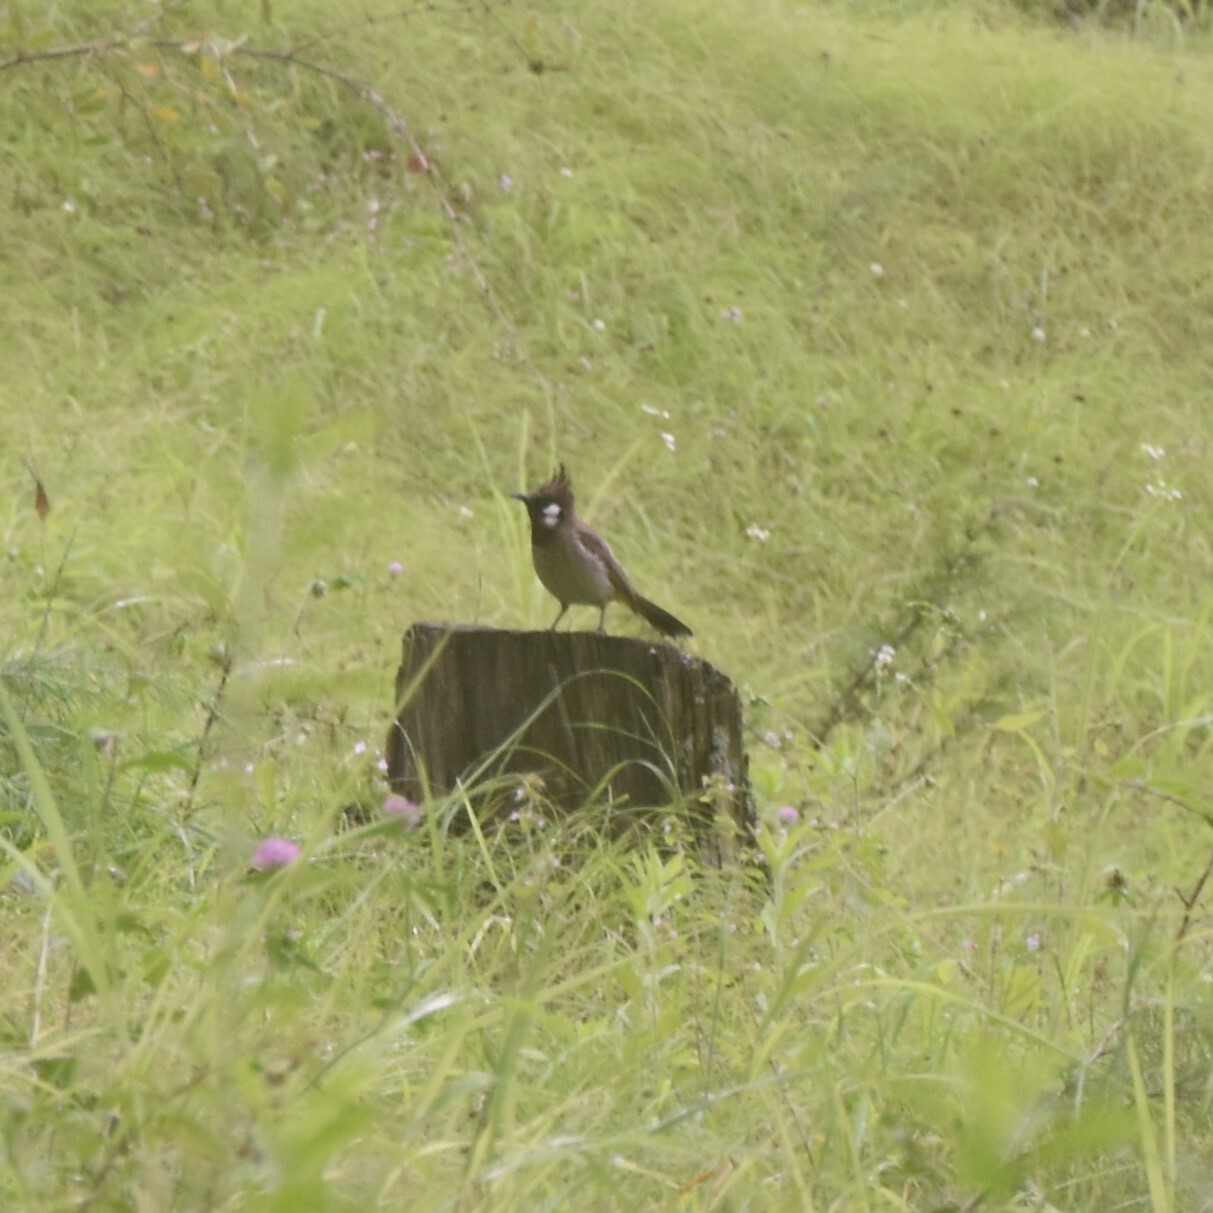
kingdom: Animalia
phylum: Chordata
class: Aves
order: Passeriformes
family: Pycnonotidae
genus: Pycnonotus
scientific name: Pycnonotus leucogenys
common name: Himalayan bulbul
